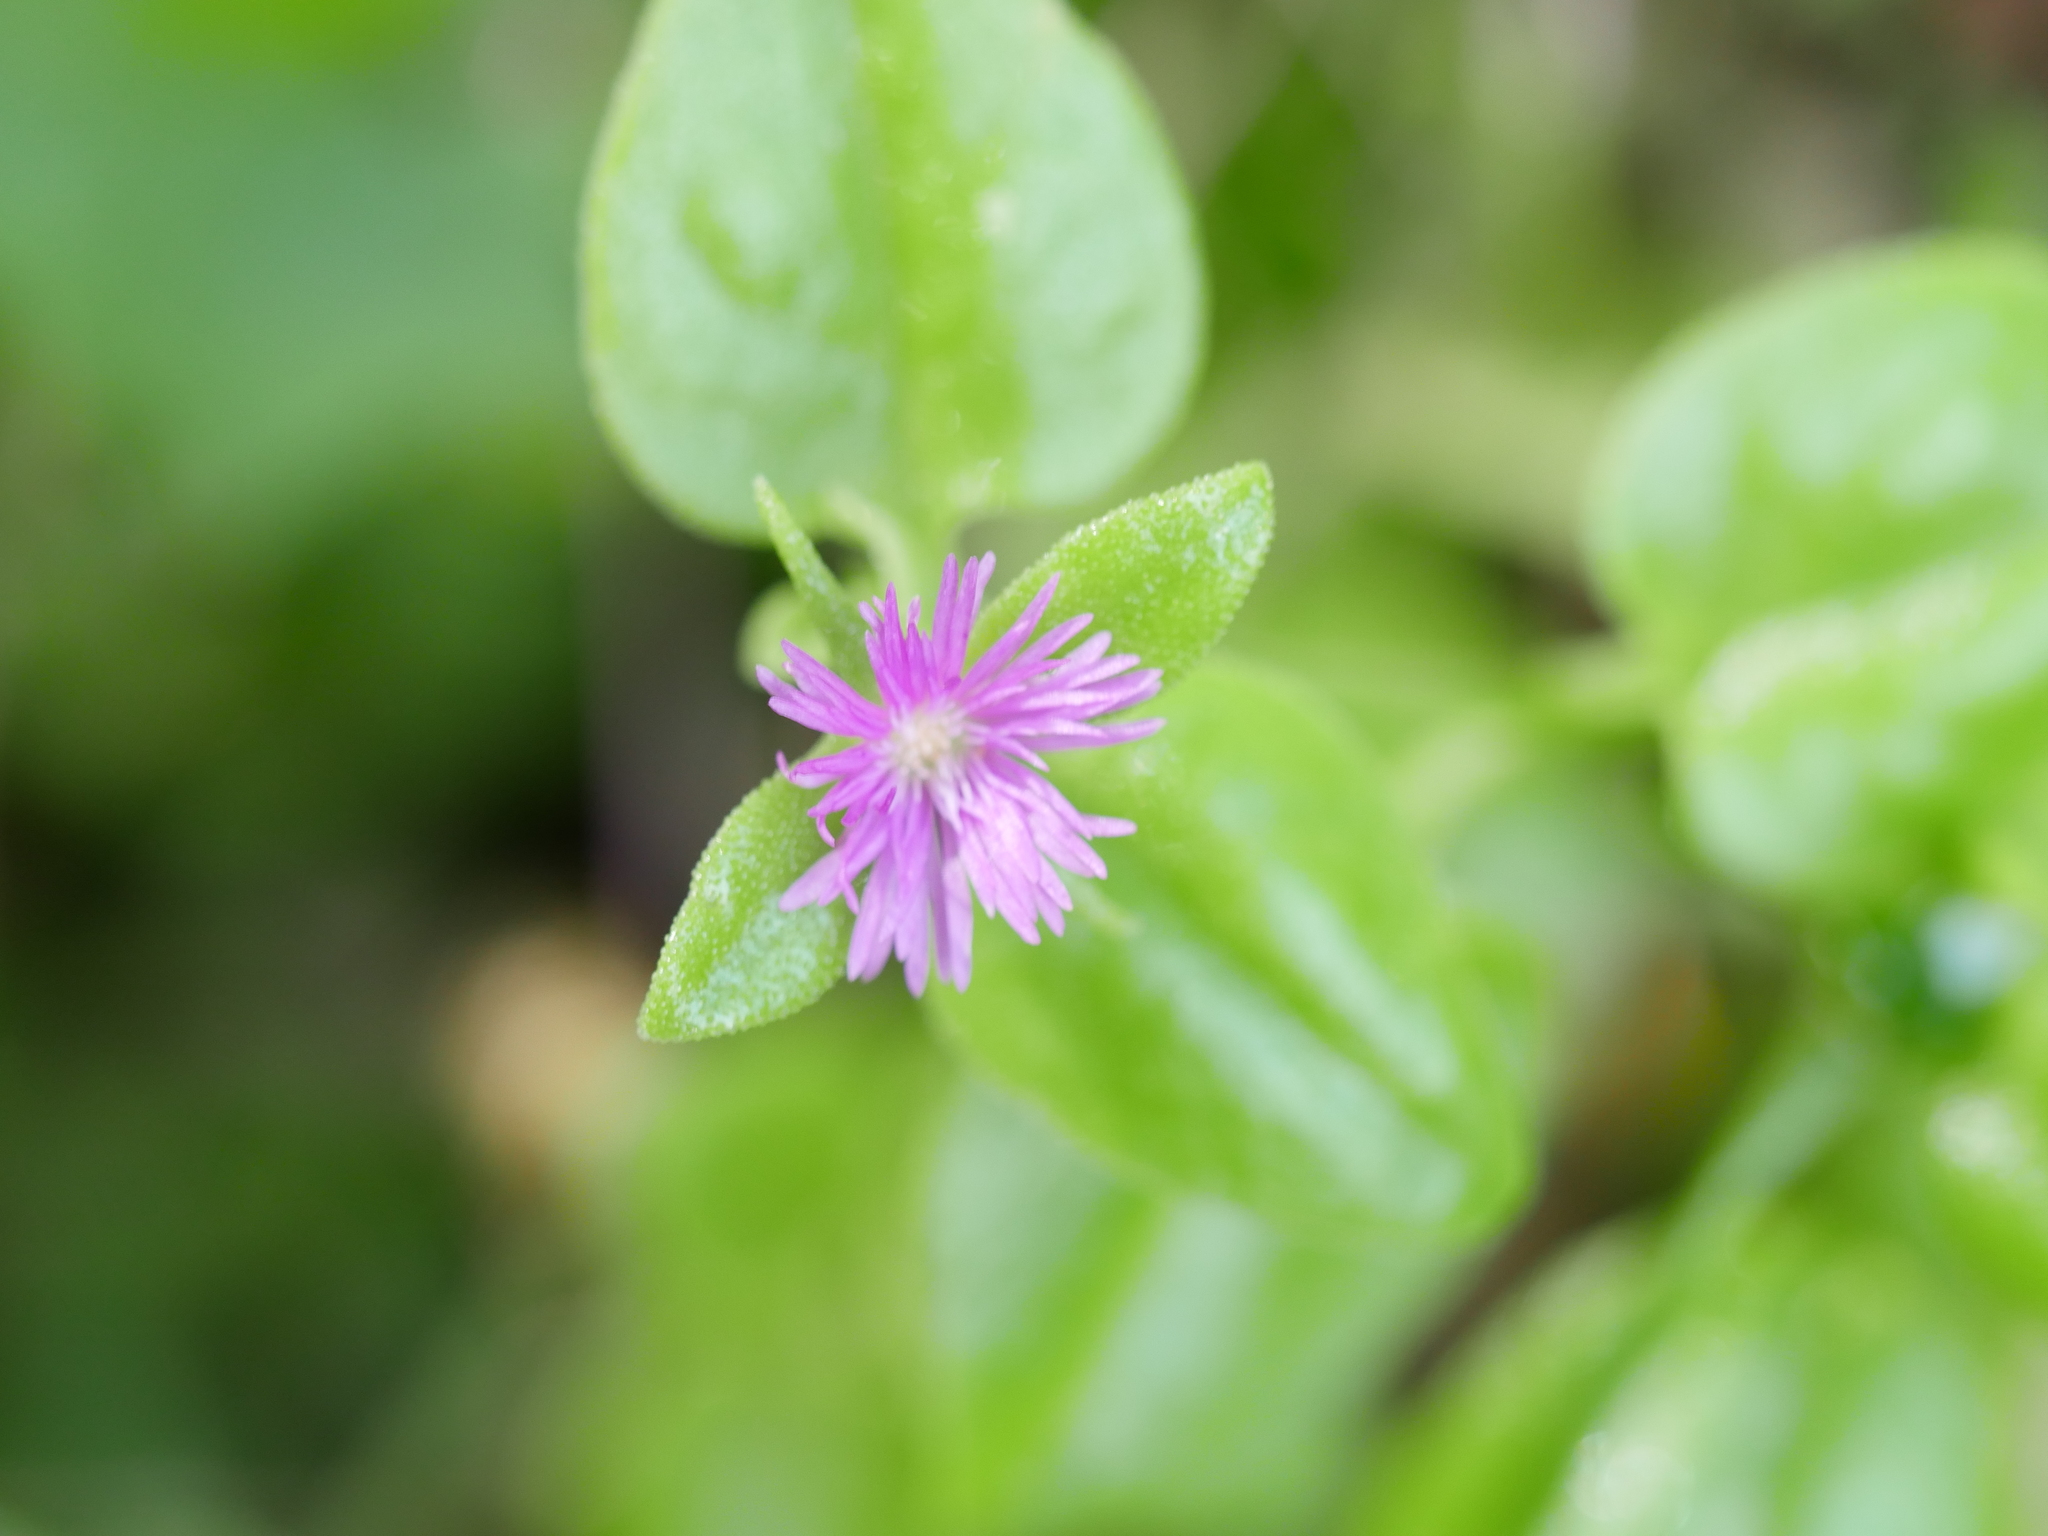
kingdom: Plantae
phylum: Tracheophyta
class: Magnoliopsida
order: Caryophyllales
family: Aizoaceae
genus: Mesembryanthemum
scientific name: Mesembryanthemum cordifolium
